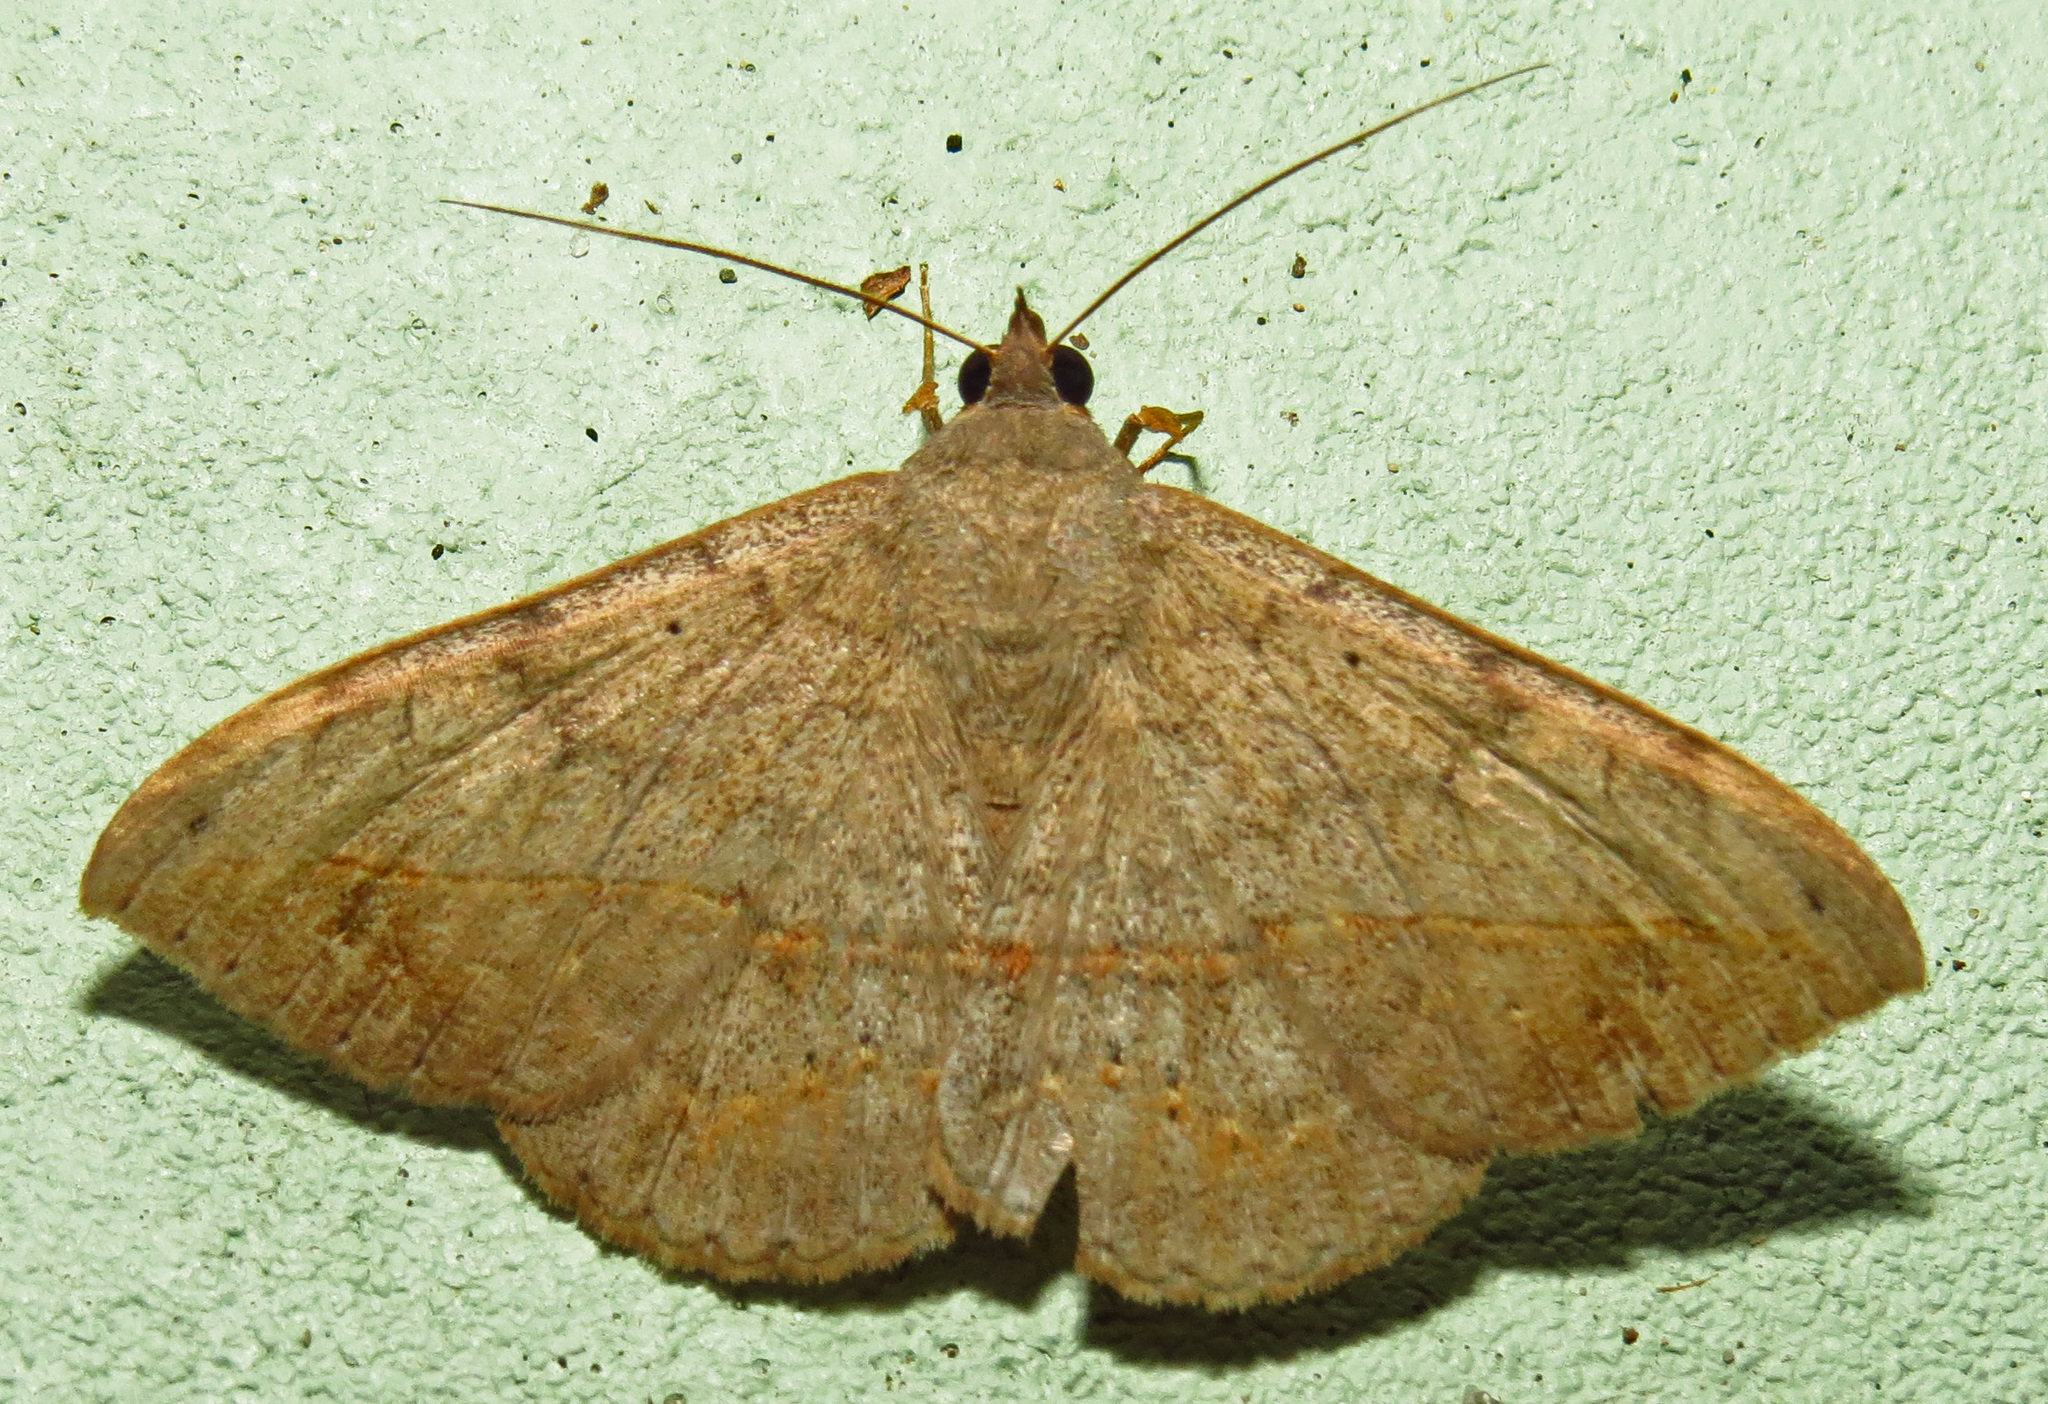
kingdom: Animalia
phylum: Arthropoda
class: Insecta
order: Lepidoptera
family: Erebidae
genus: Anticarsia
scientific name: Anticarsia gemmatalis
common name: Cutworm moth
